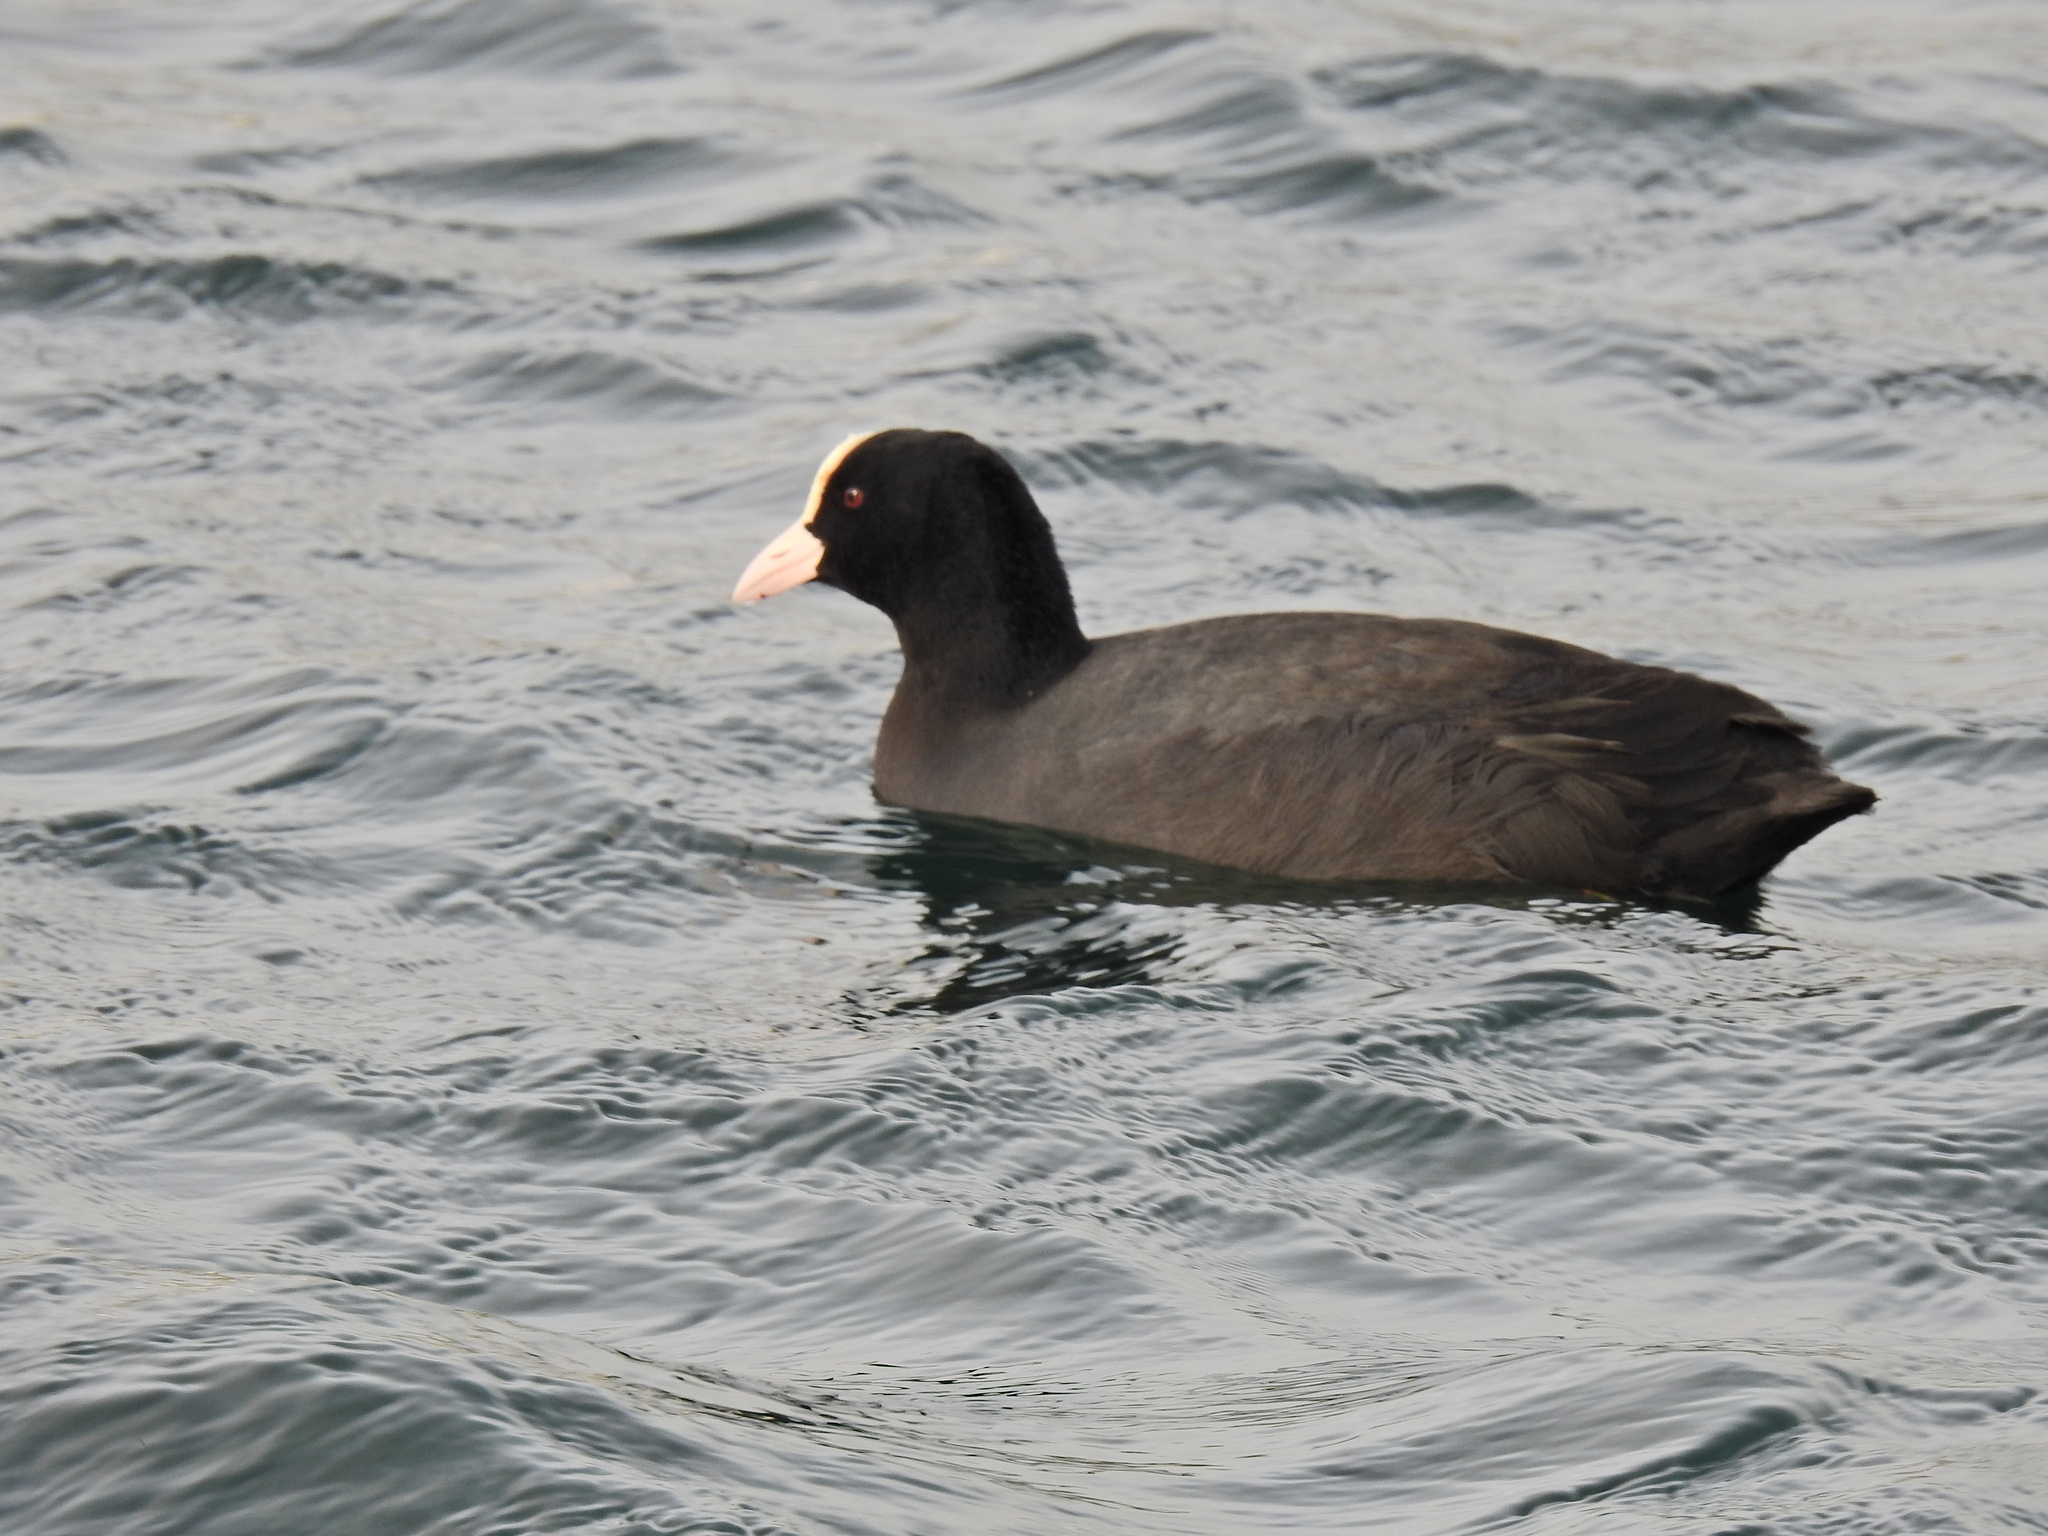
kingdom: Animalia
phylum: Chordata
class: Aves
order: Gruiformes
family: Rallidae
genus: Fulica
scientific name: Fulica atra
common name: Eurasian coot
